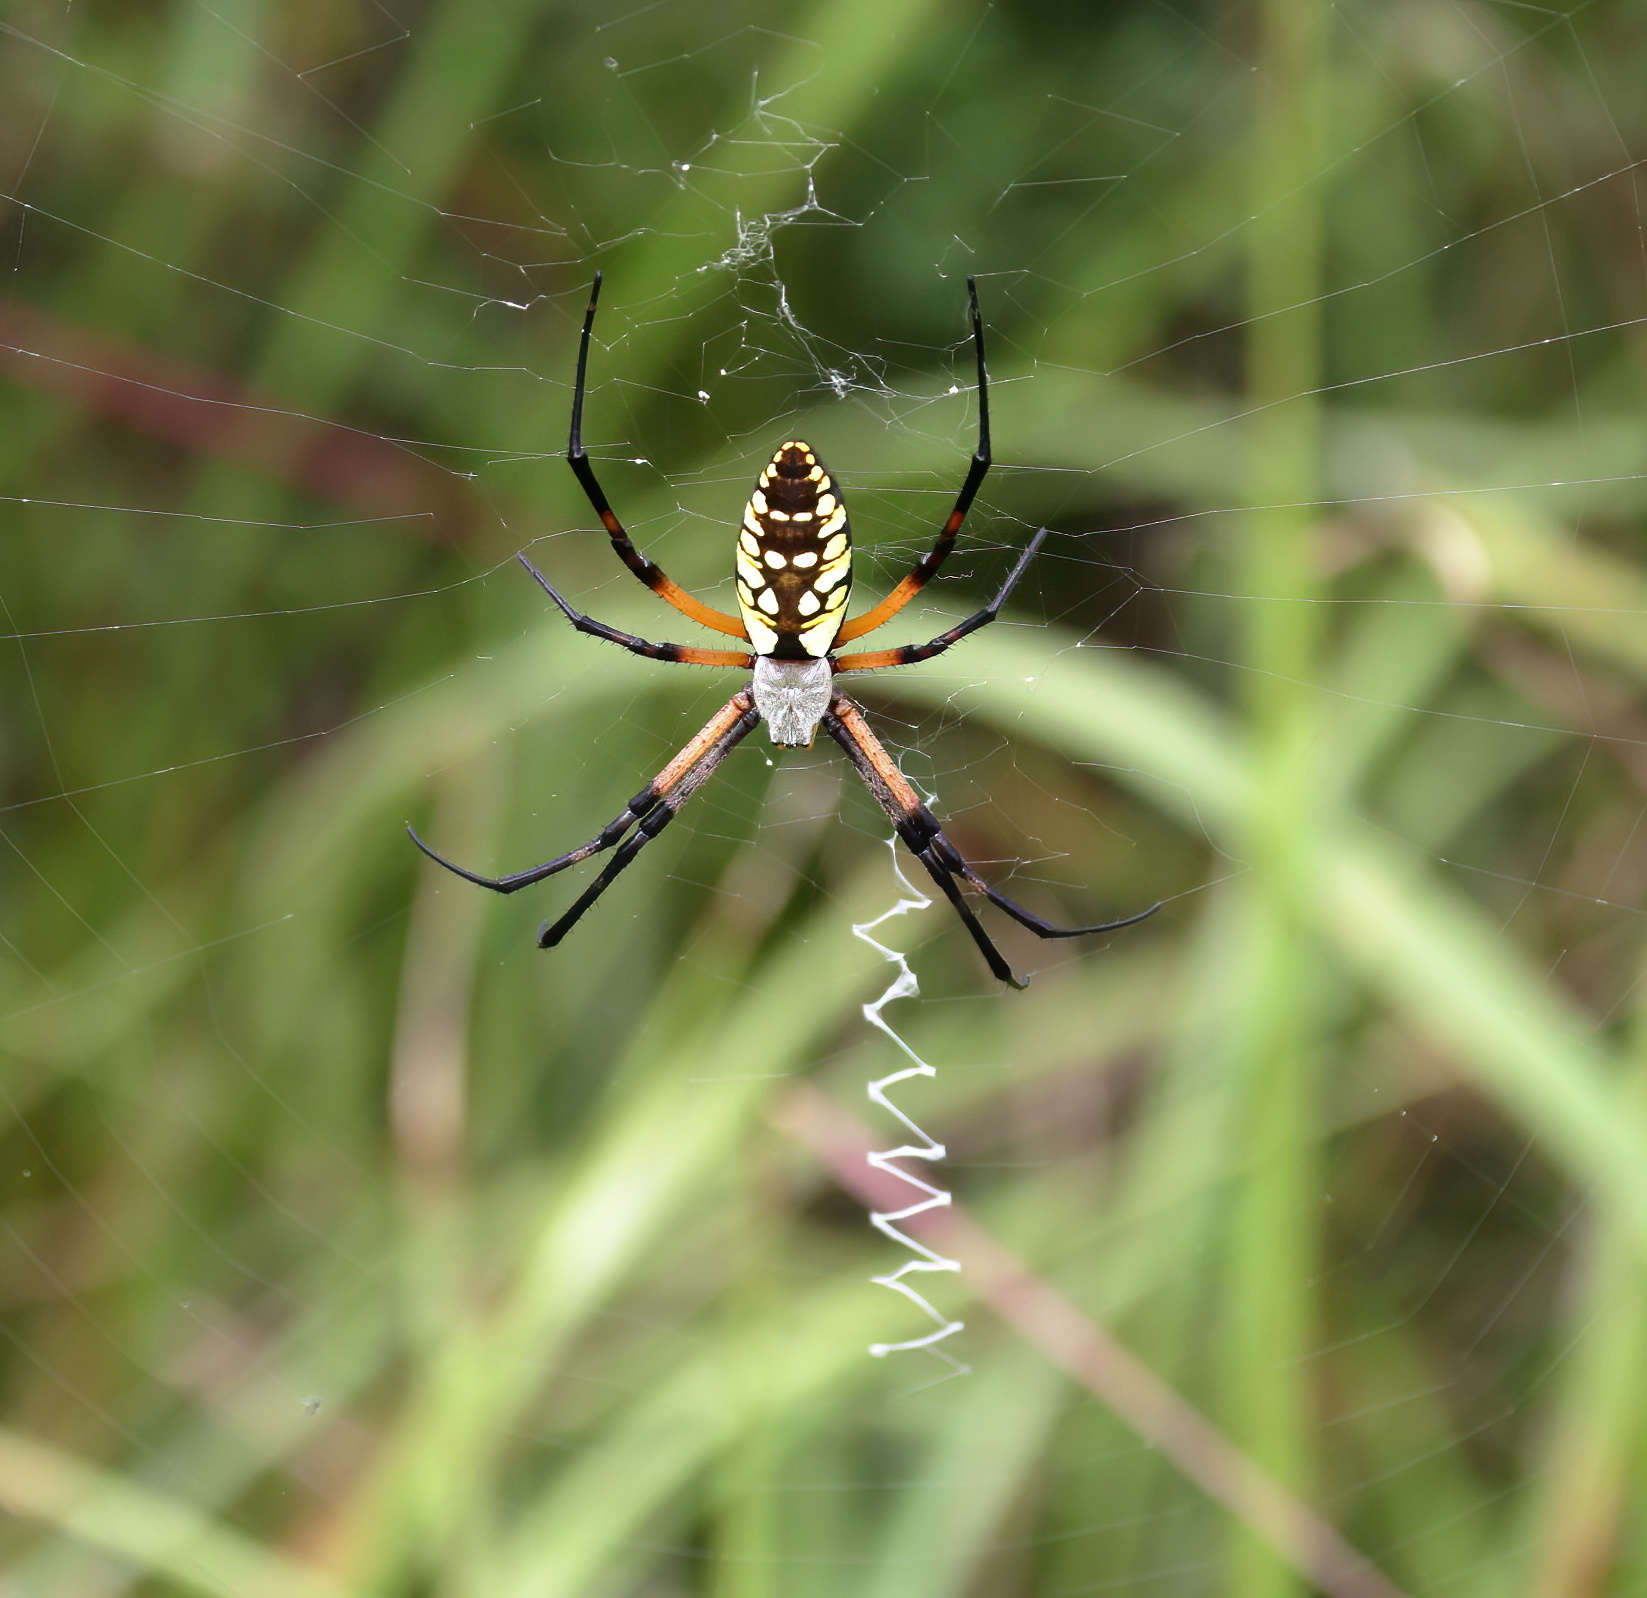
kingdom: Animalia
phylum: Arthropoda
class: Arachnida
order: Araneae
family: Araneidae
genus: Argiope
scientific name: Argiope aurantia
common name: Orb weavers
